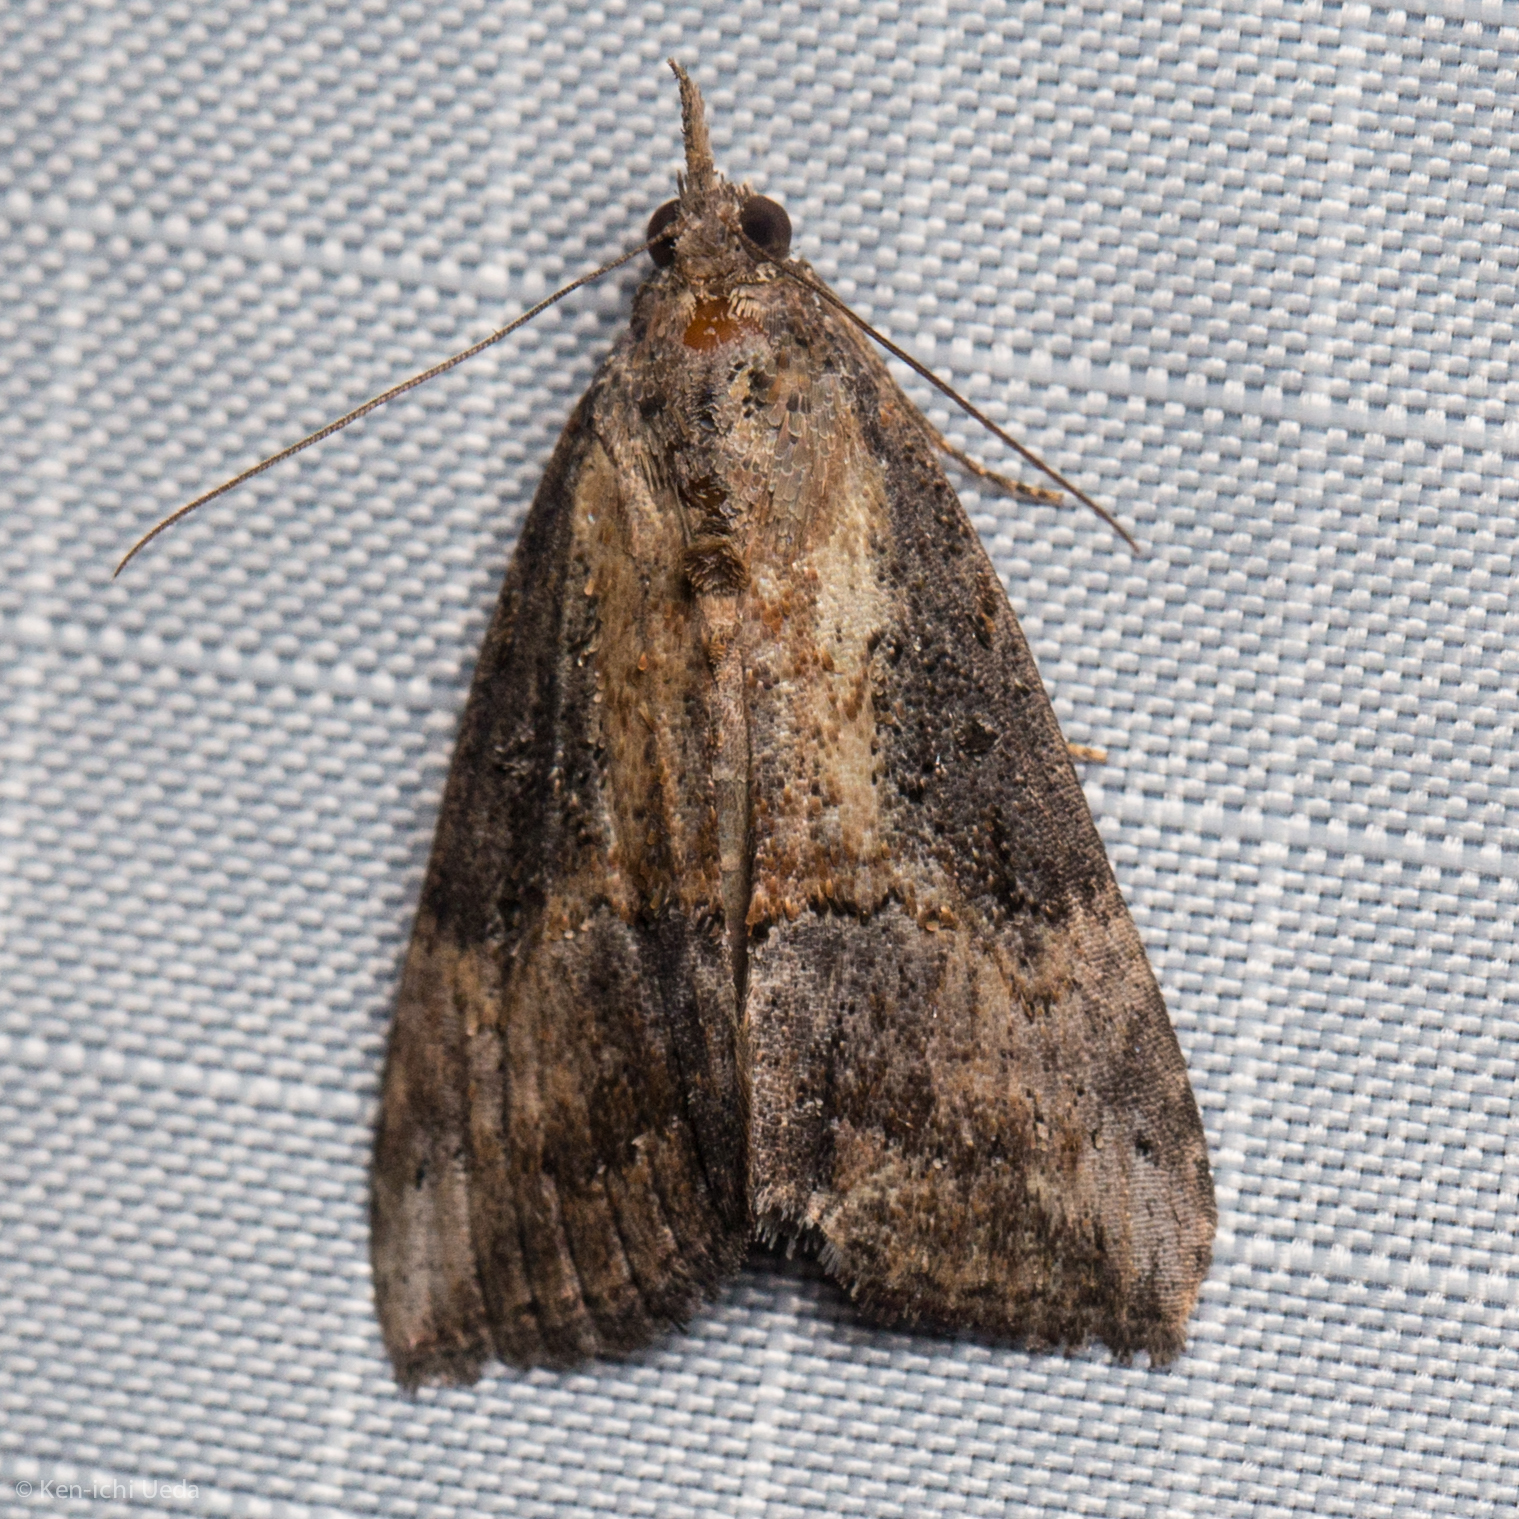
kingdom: Animalia
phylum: Arthropoda
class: Insecta
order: Lepidoptera
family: Erebidae
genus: Hypena
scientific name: Hypena scabra
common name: Green cloverworm
